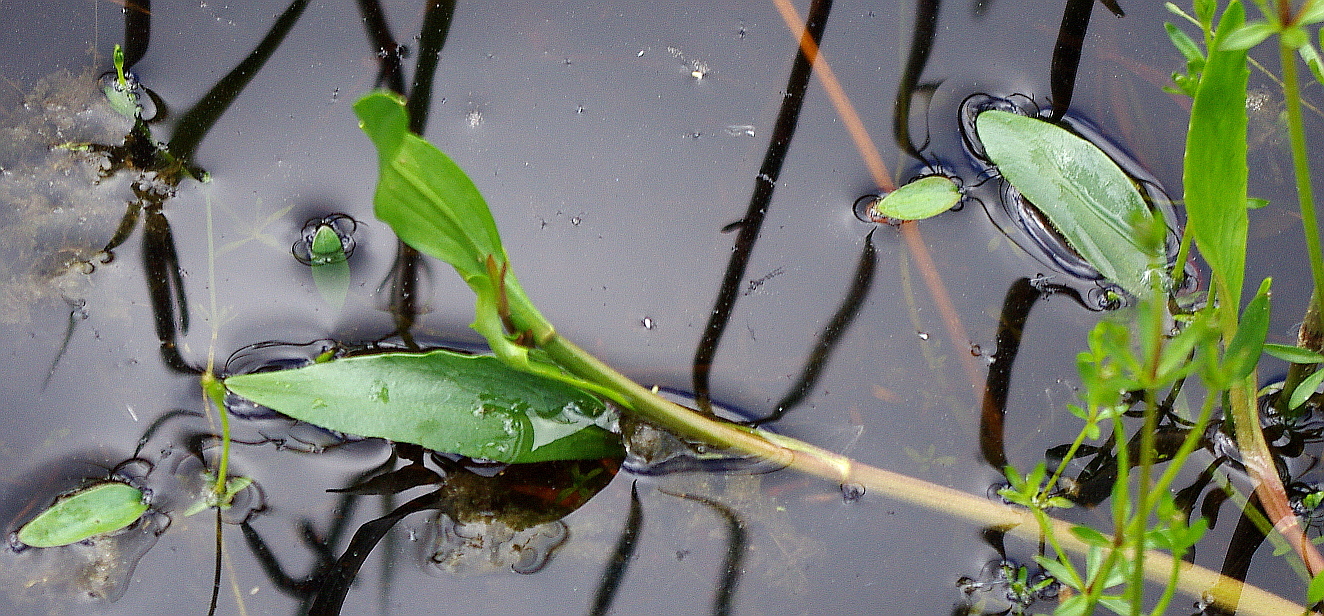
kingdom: Plantae
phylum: Tracheophyta
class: Magnoliopsida
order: Ranunculales
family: Ranunculaceae
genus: Ranunculus
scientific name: Ranunculus lingua
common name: Greater spearwort
